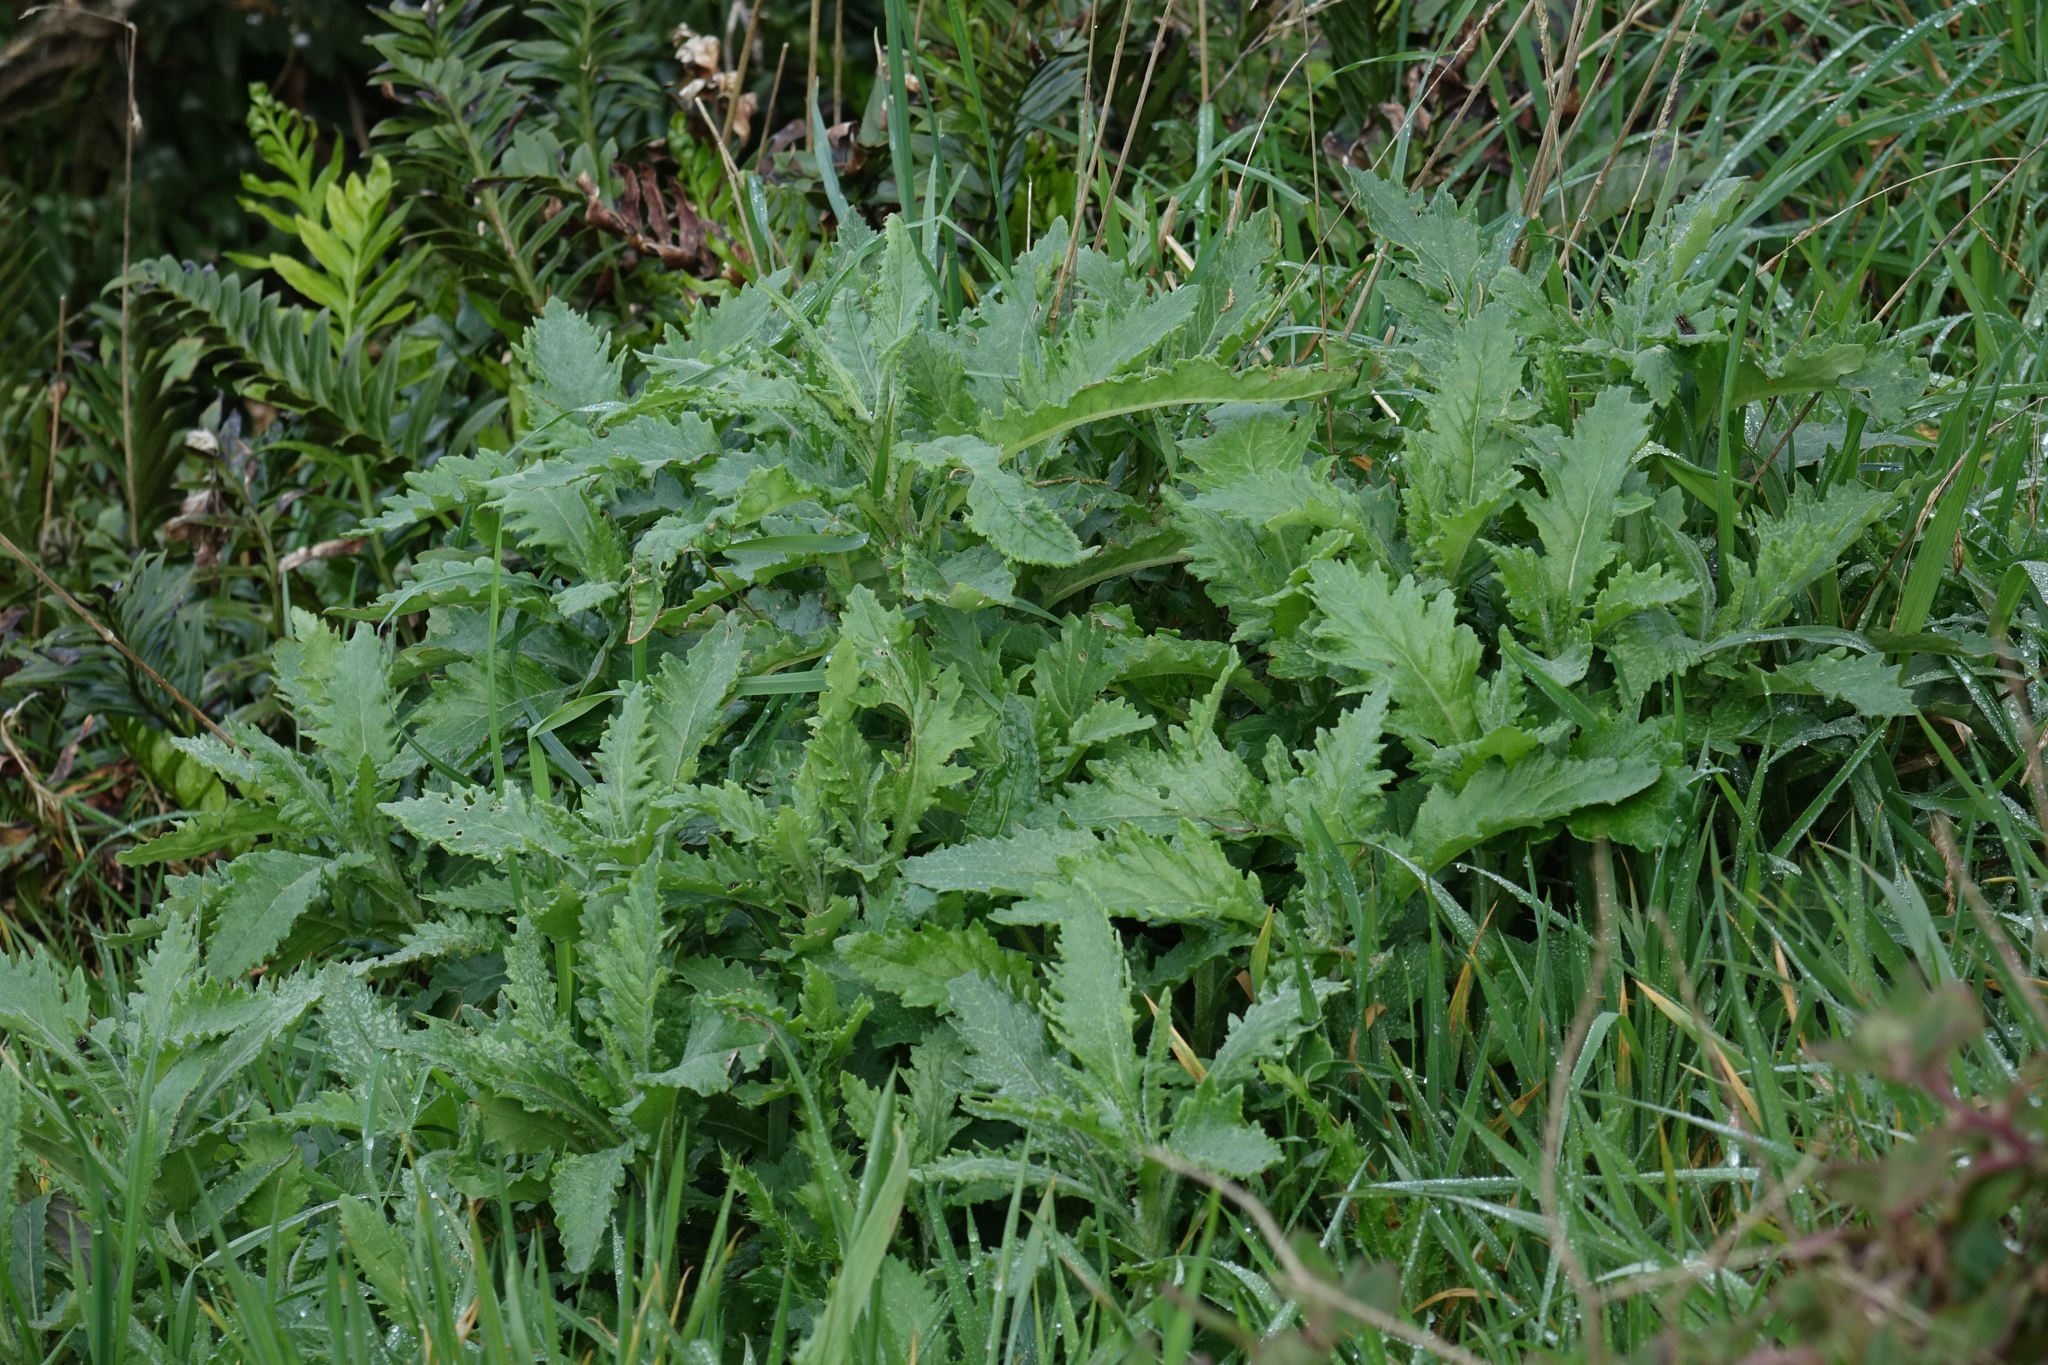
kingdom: Plantae
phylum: Tracheophyta
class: Magnoliopsida
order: Asterales
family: Asteraceae
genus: Senecio
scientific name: Senecio biserratus
